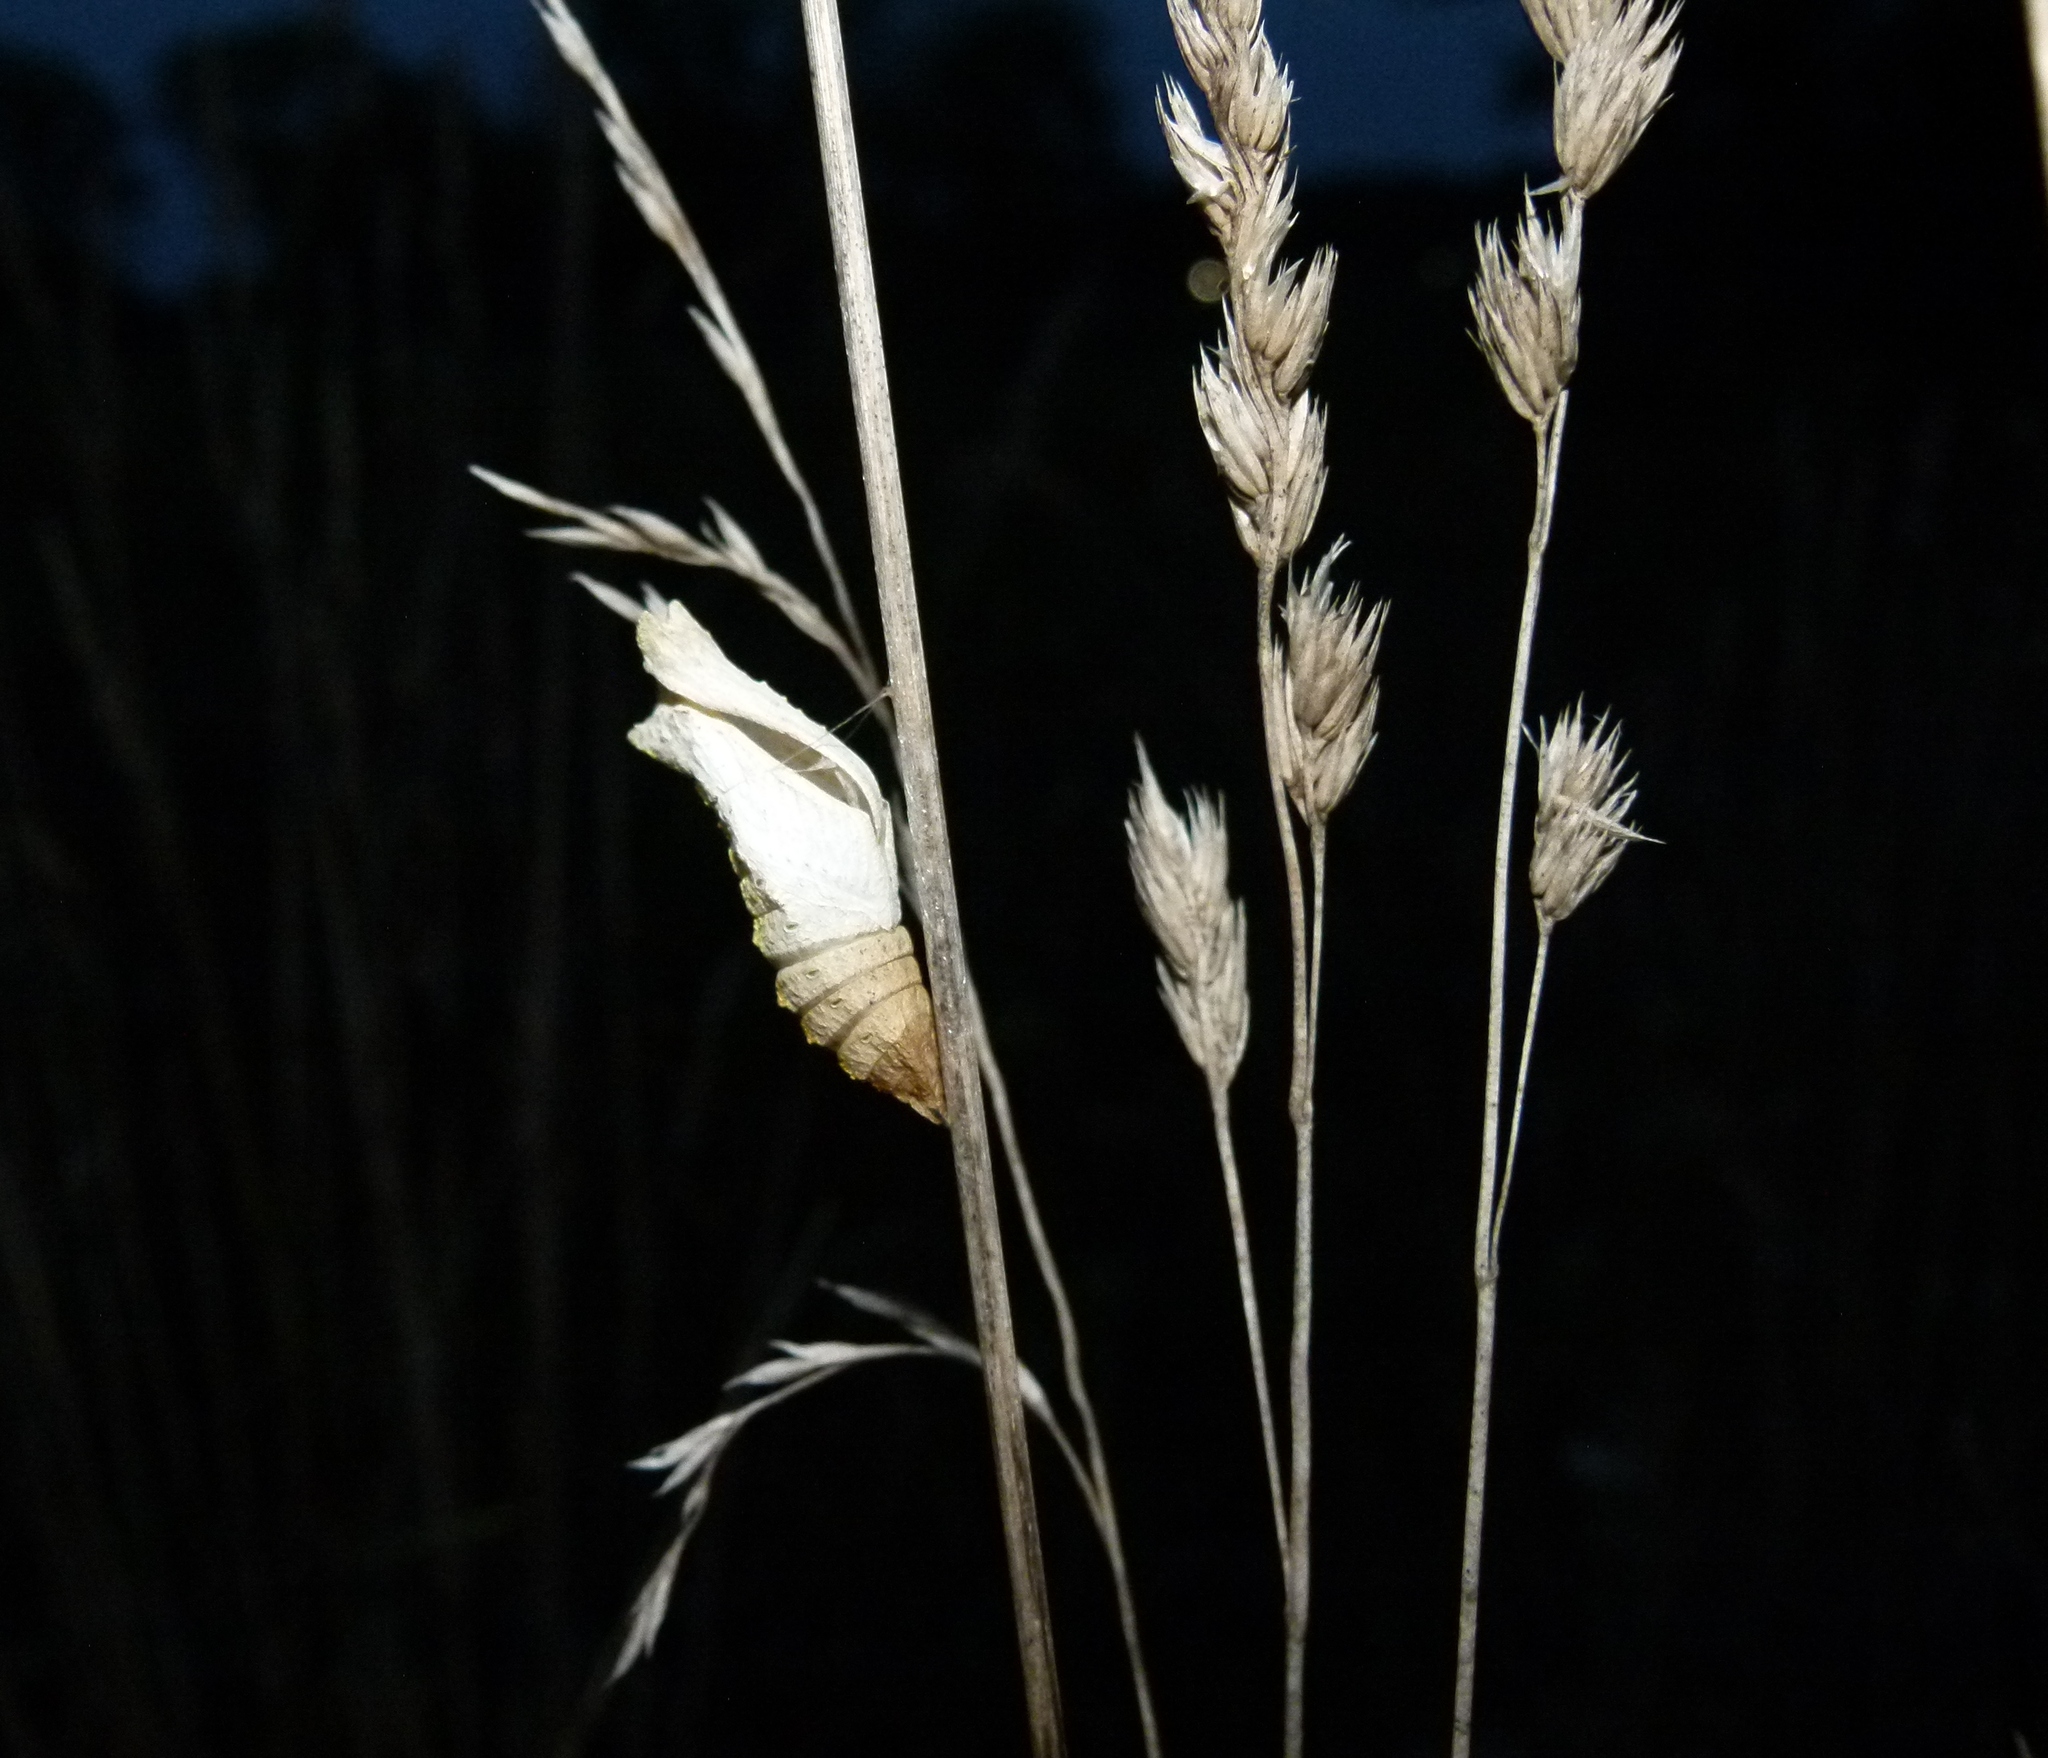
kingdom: Animalia
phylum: Arthropoda
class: Insecta
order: Lepidoptera
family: Papilionidae
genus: Papilio
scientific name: Papilio polyxenes
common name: Black swallowtail
